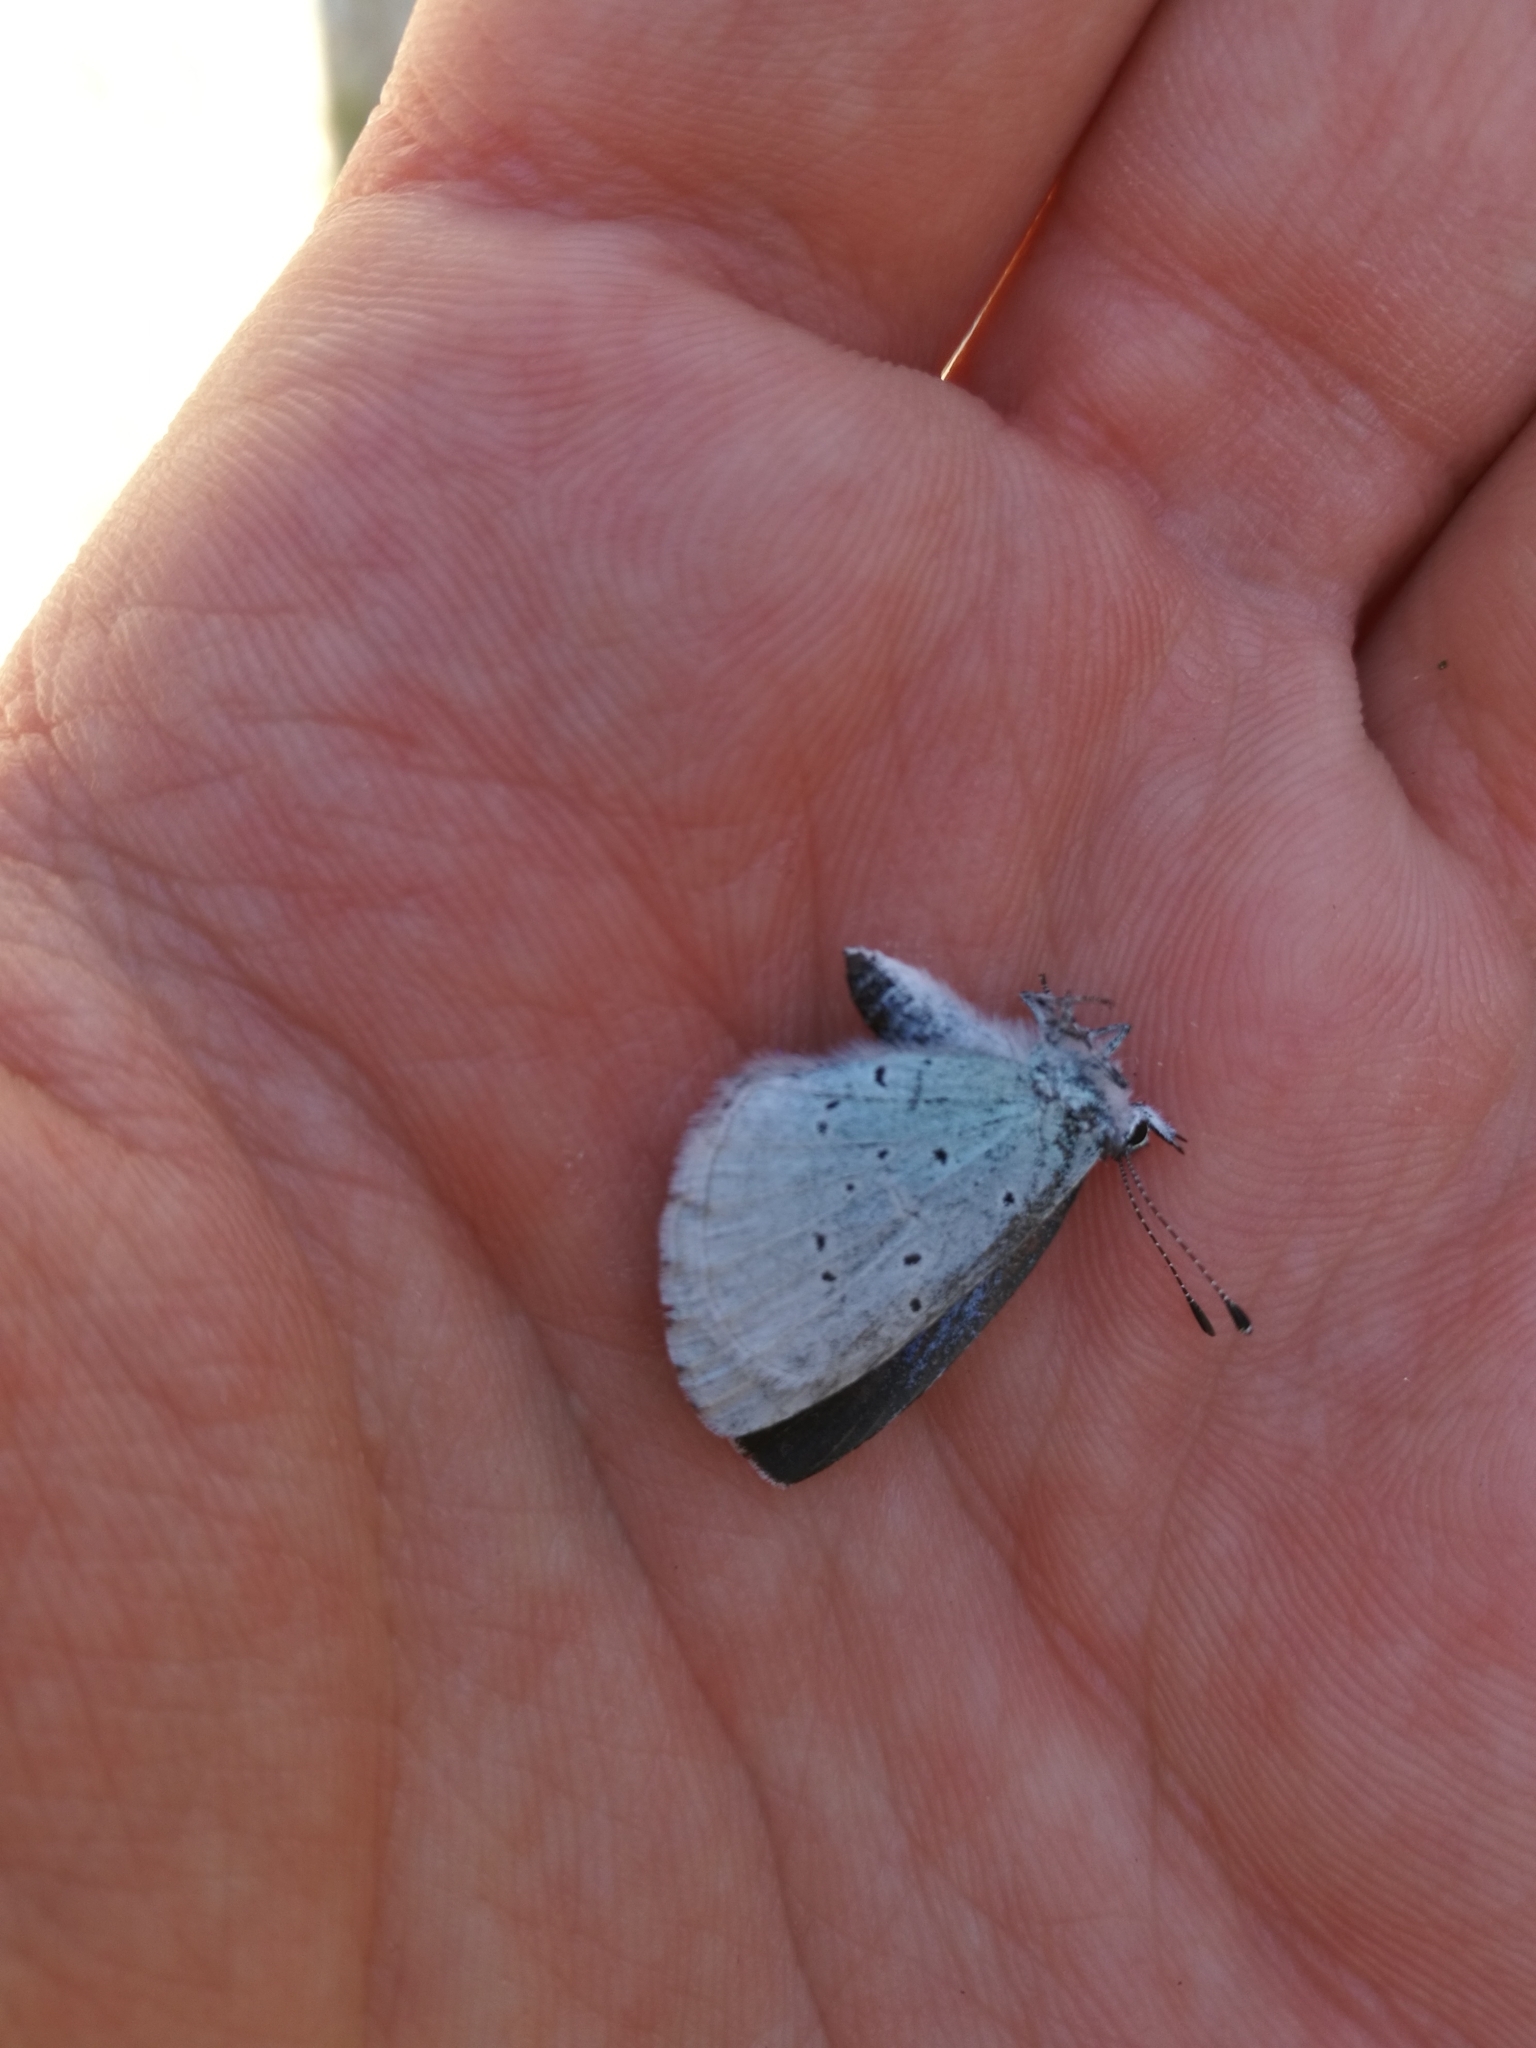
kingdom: Animalia
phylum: Arthropoda
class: Insecta
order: Lepidoptera
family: Lycaenidae
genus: Celastrina
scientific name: Celastrina argiolus
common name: Holly blue
